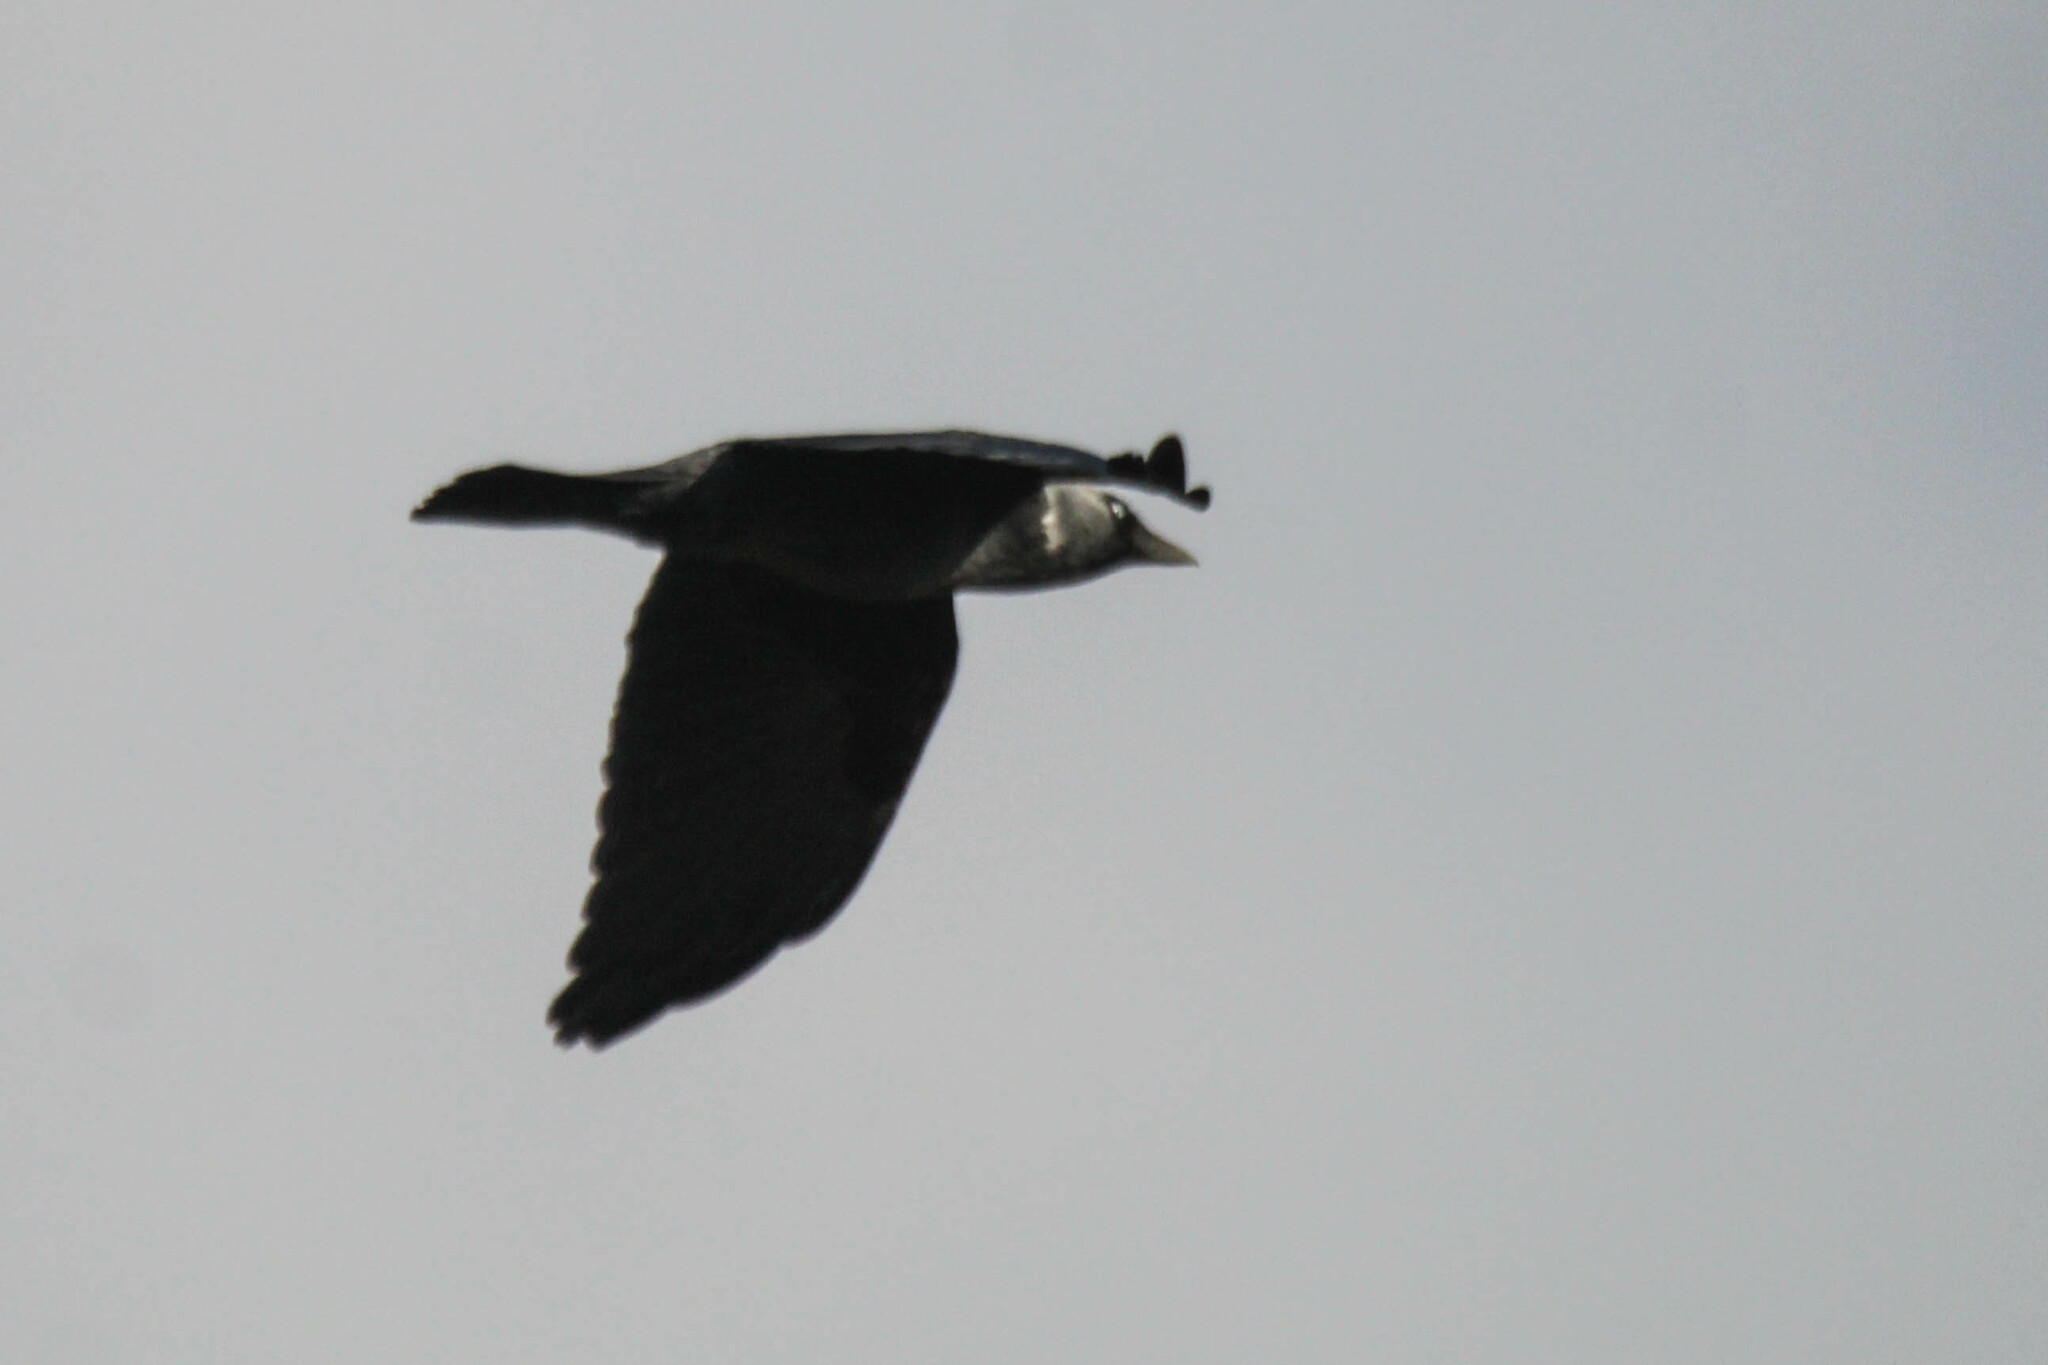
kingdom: Animalia
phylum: Chordata
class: Aves
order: Passeriformes
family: Corvidae
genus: Coloeus
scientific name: Coloeus monedula
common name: Western jackdaw
